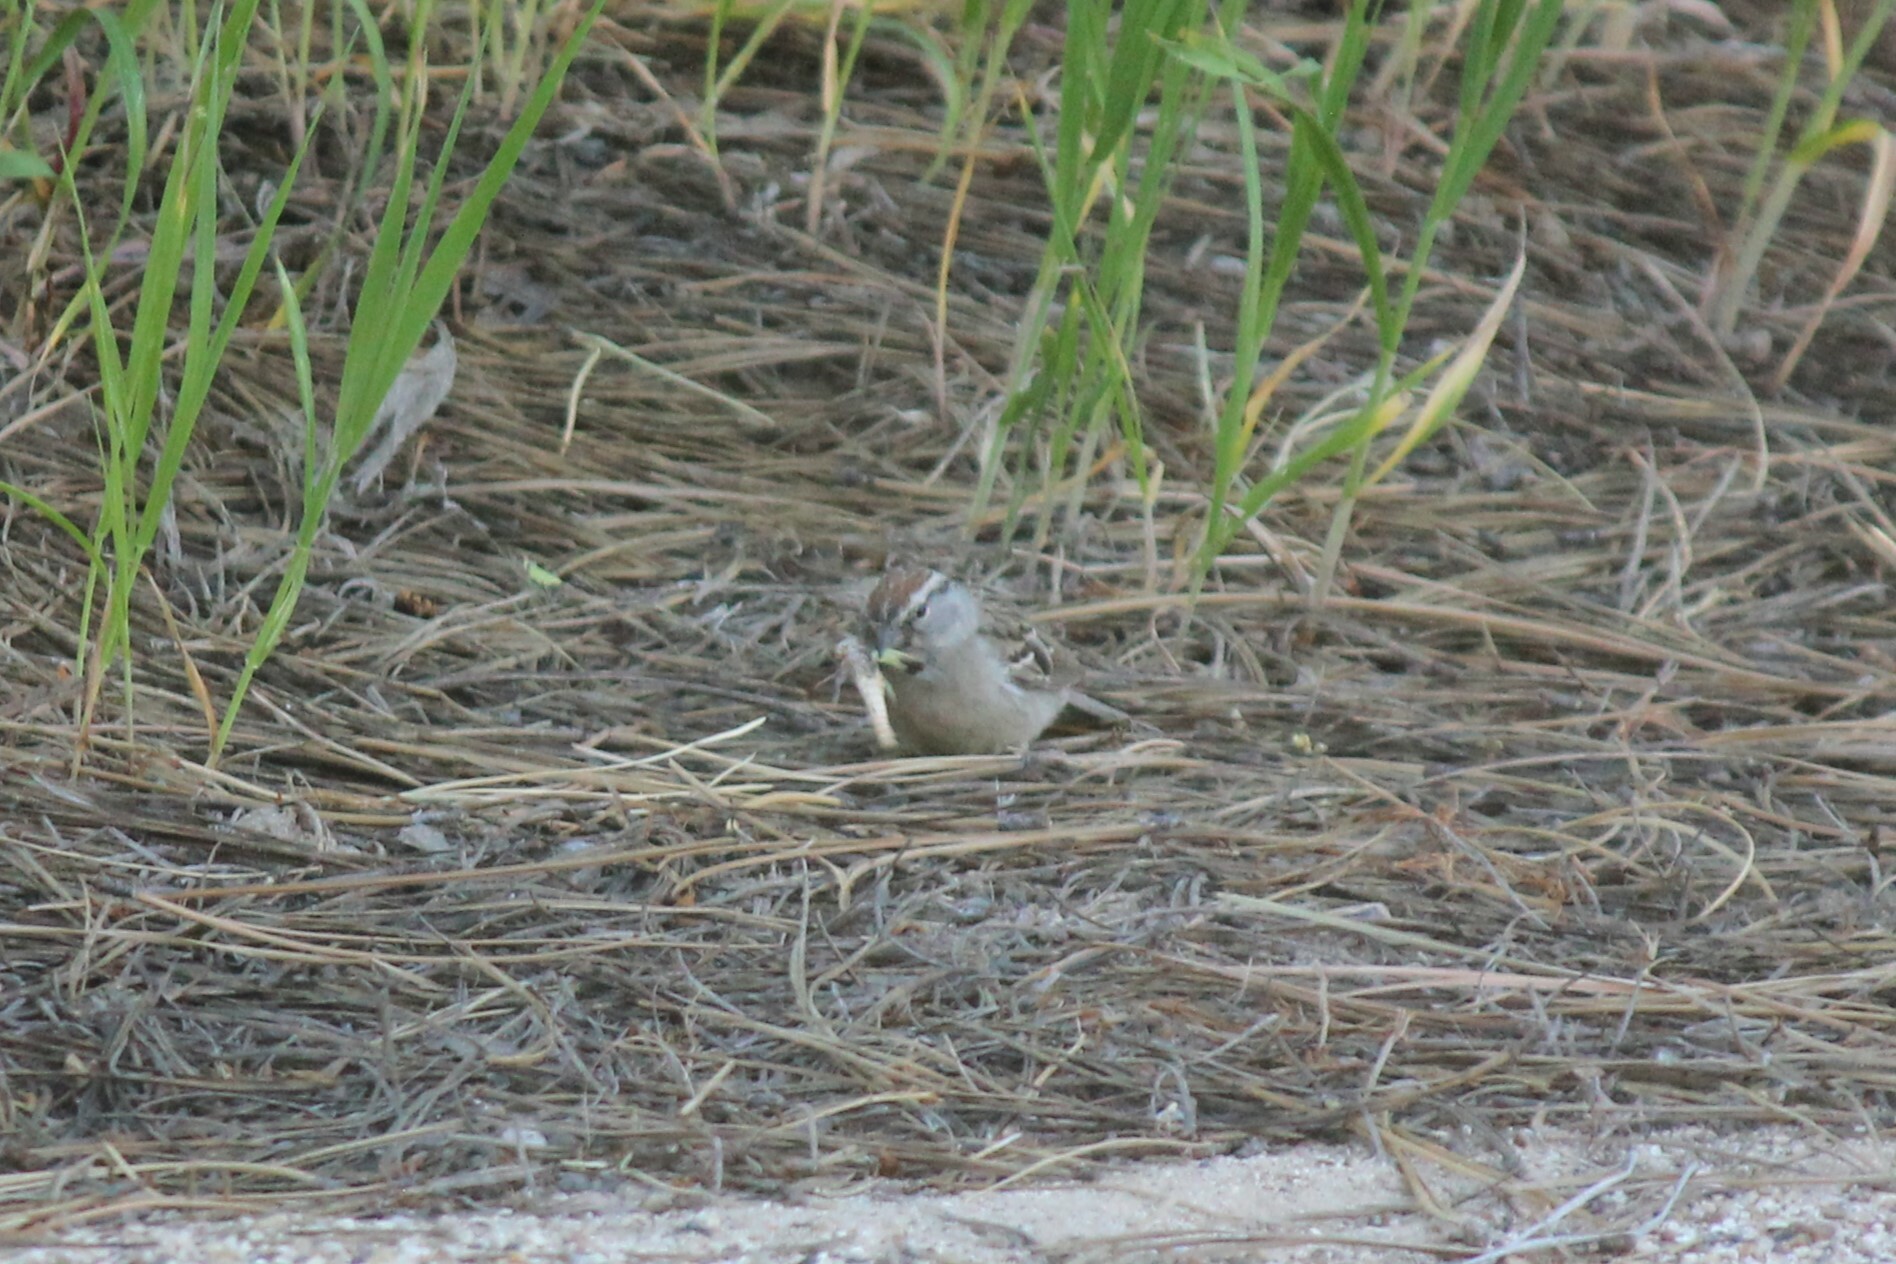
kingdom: Animalia
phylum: Chordata
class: Aves
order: Passeriformes
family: Passerellidae
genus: Spizella
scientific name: Spizella passerina
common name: Chipping sparrow
